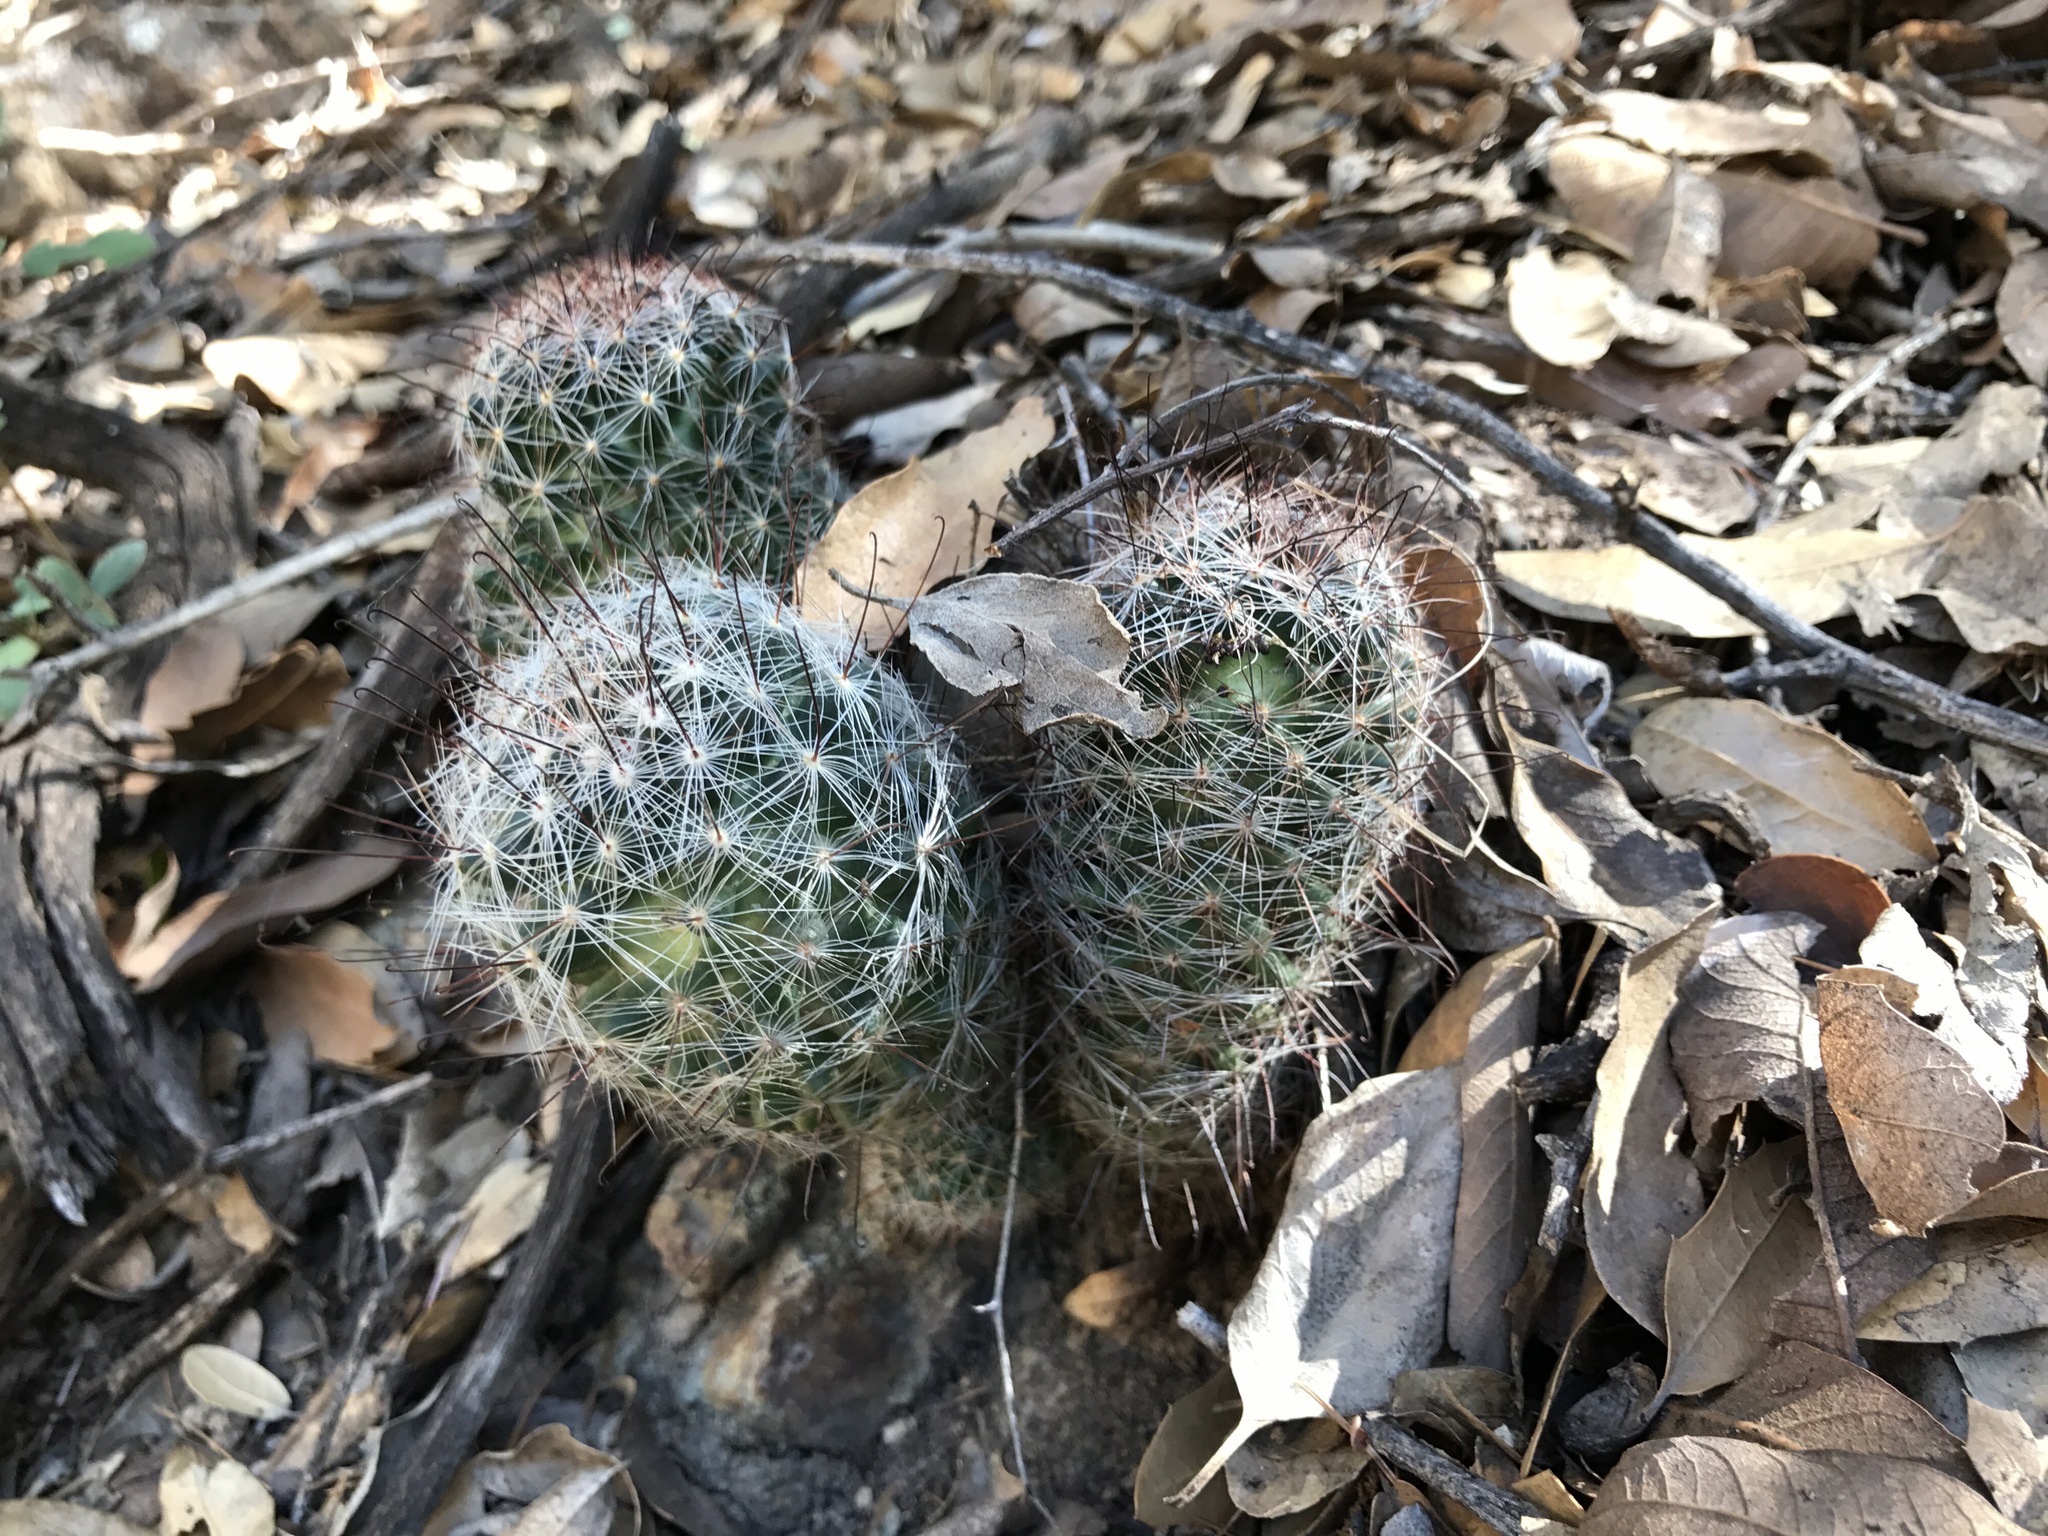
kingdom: Plantae
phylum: Tracheophyta
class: Magnoliopsida
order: Caryophyllales
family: Cactaceae
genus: Cochemiea
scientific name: Cochemiea wrightii
